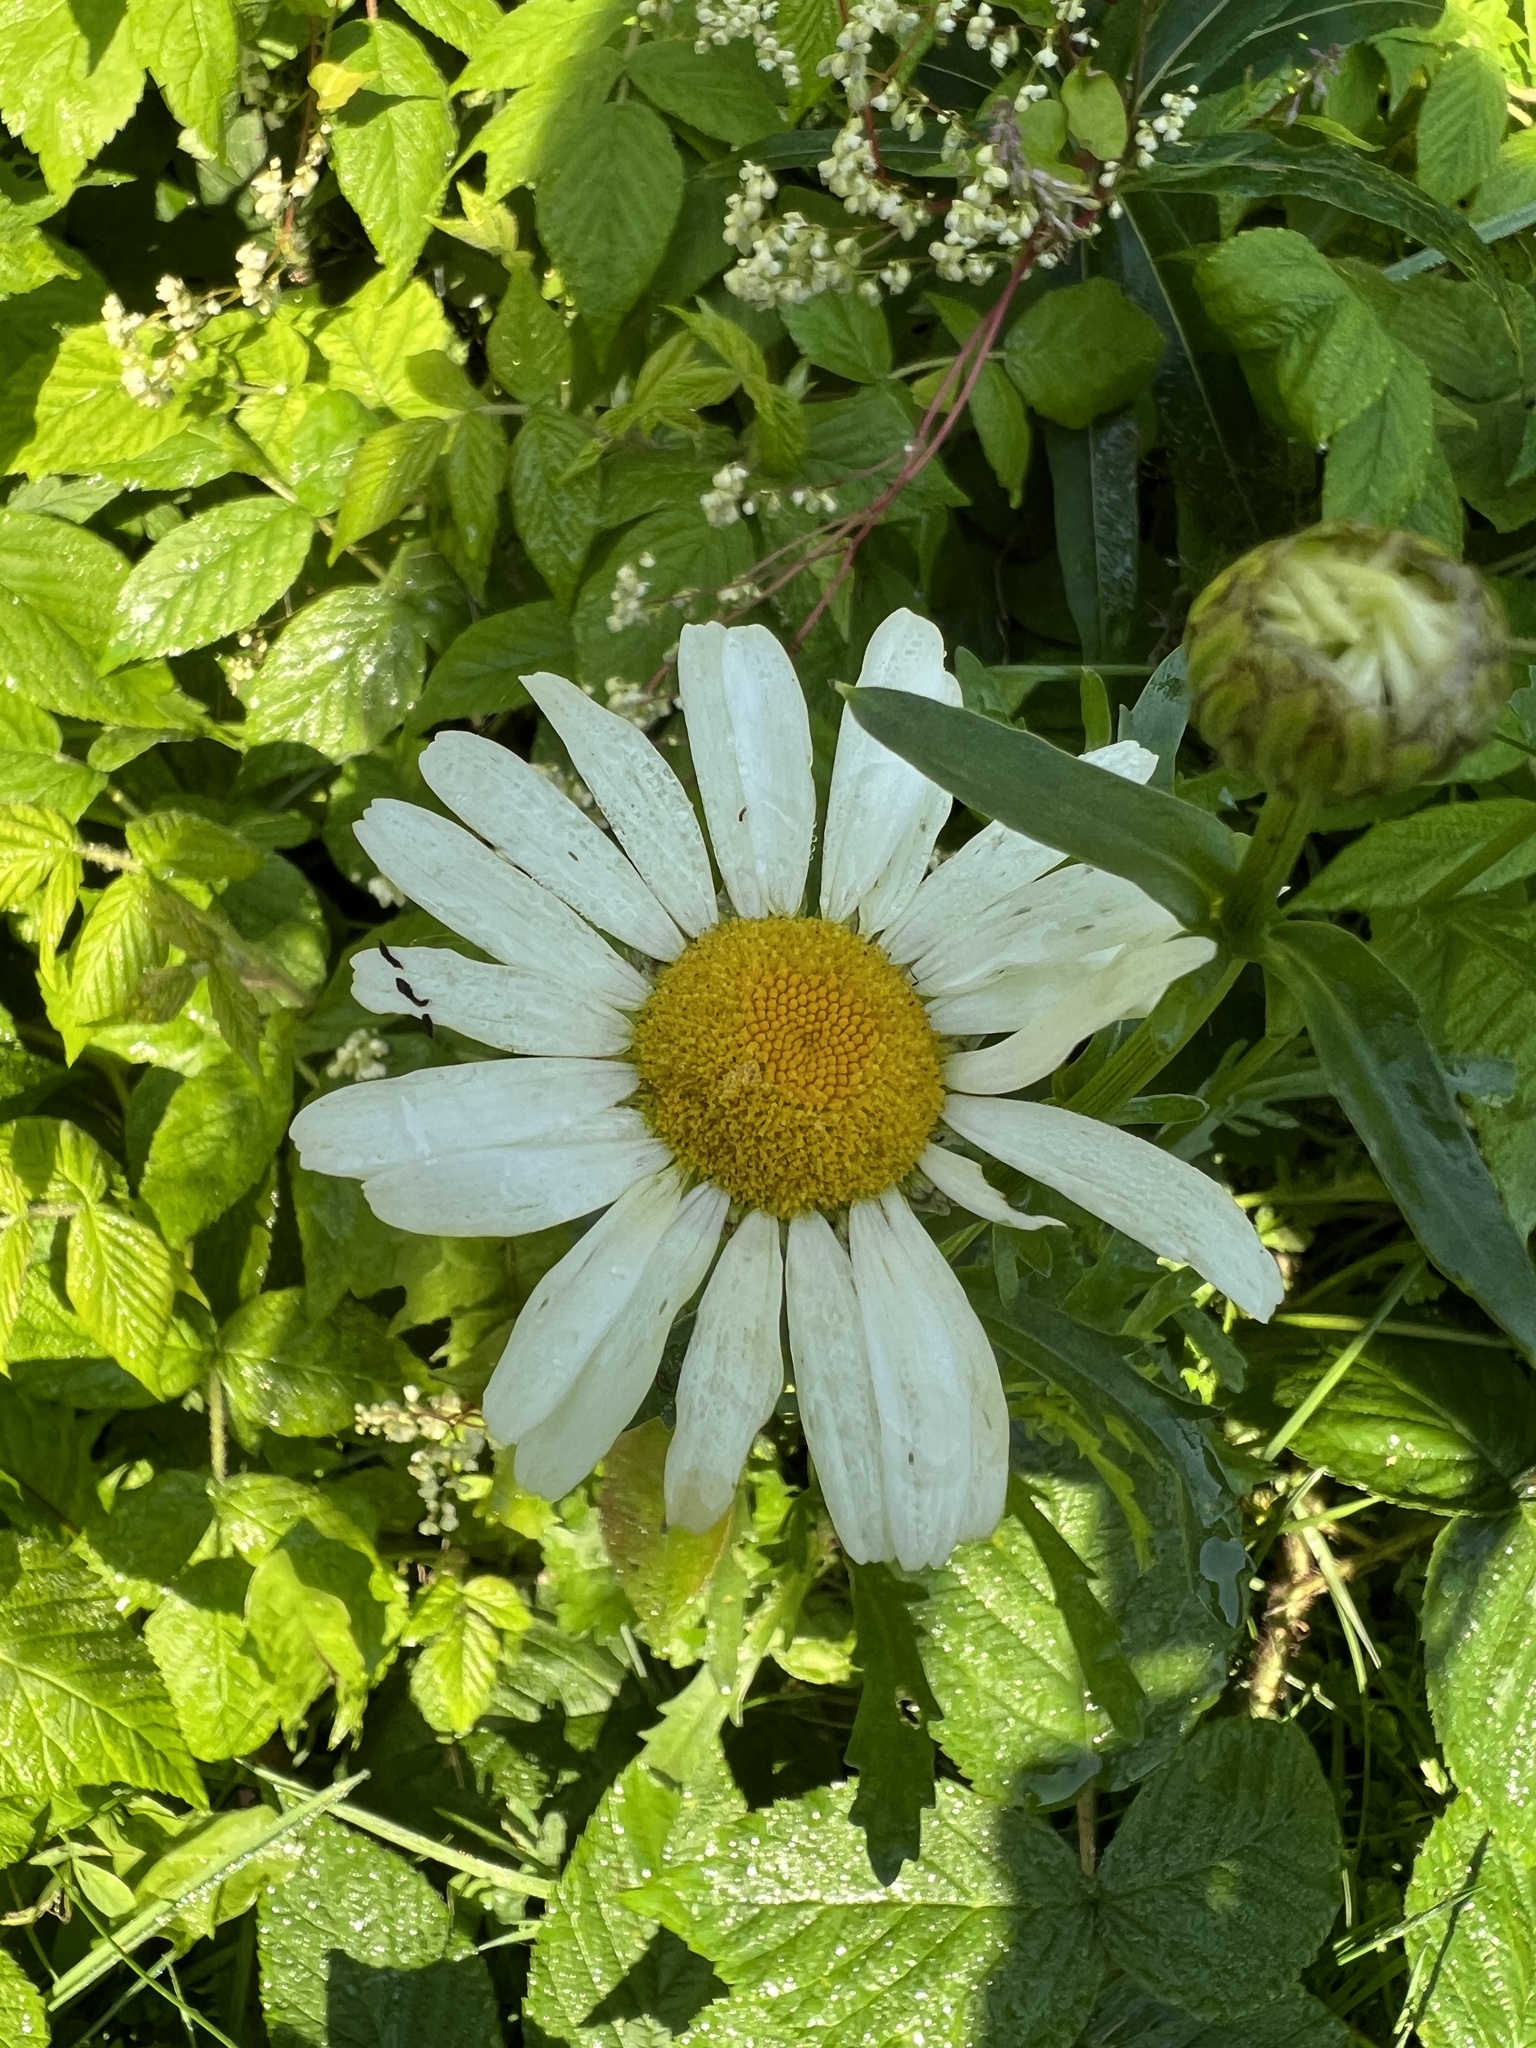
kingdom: Plantae
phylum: Tracheophyta
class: Magnoliopsida
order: Asterales
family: Asteraceae
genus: Leucanthemum
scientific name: Leucanthemum vulgare
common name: Oxeye daisy
